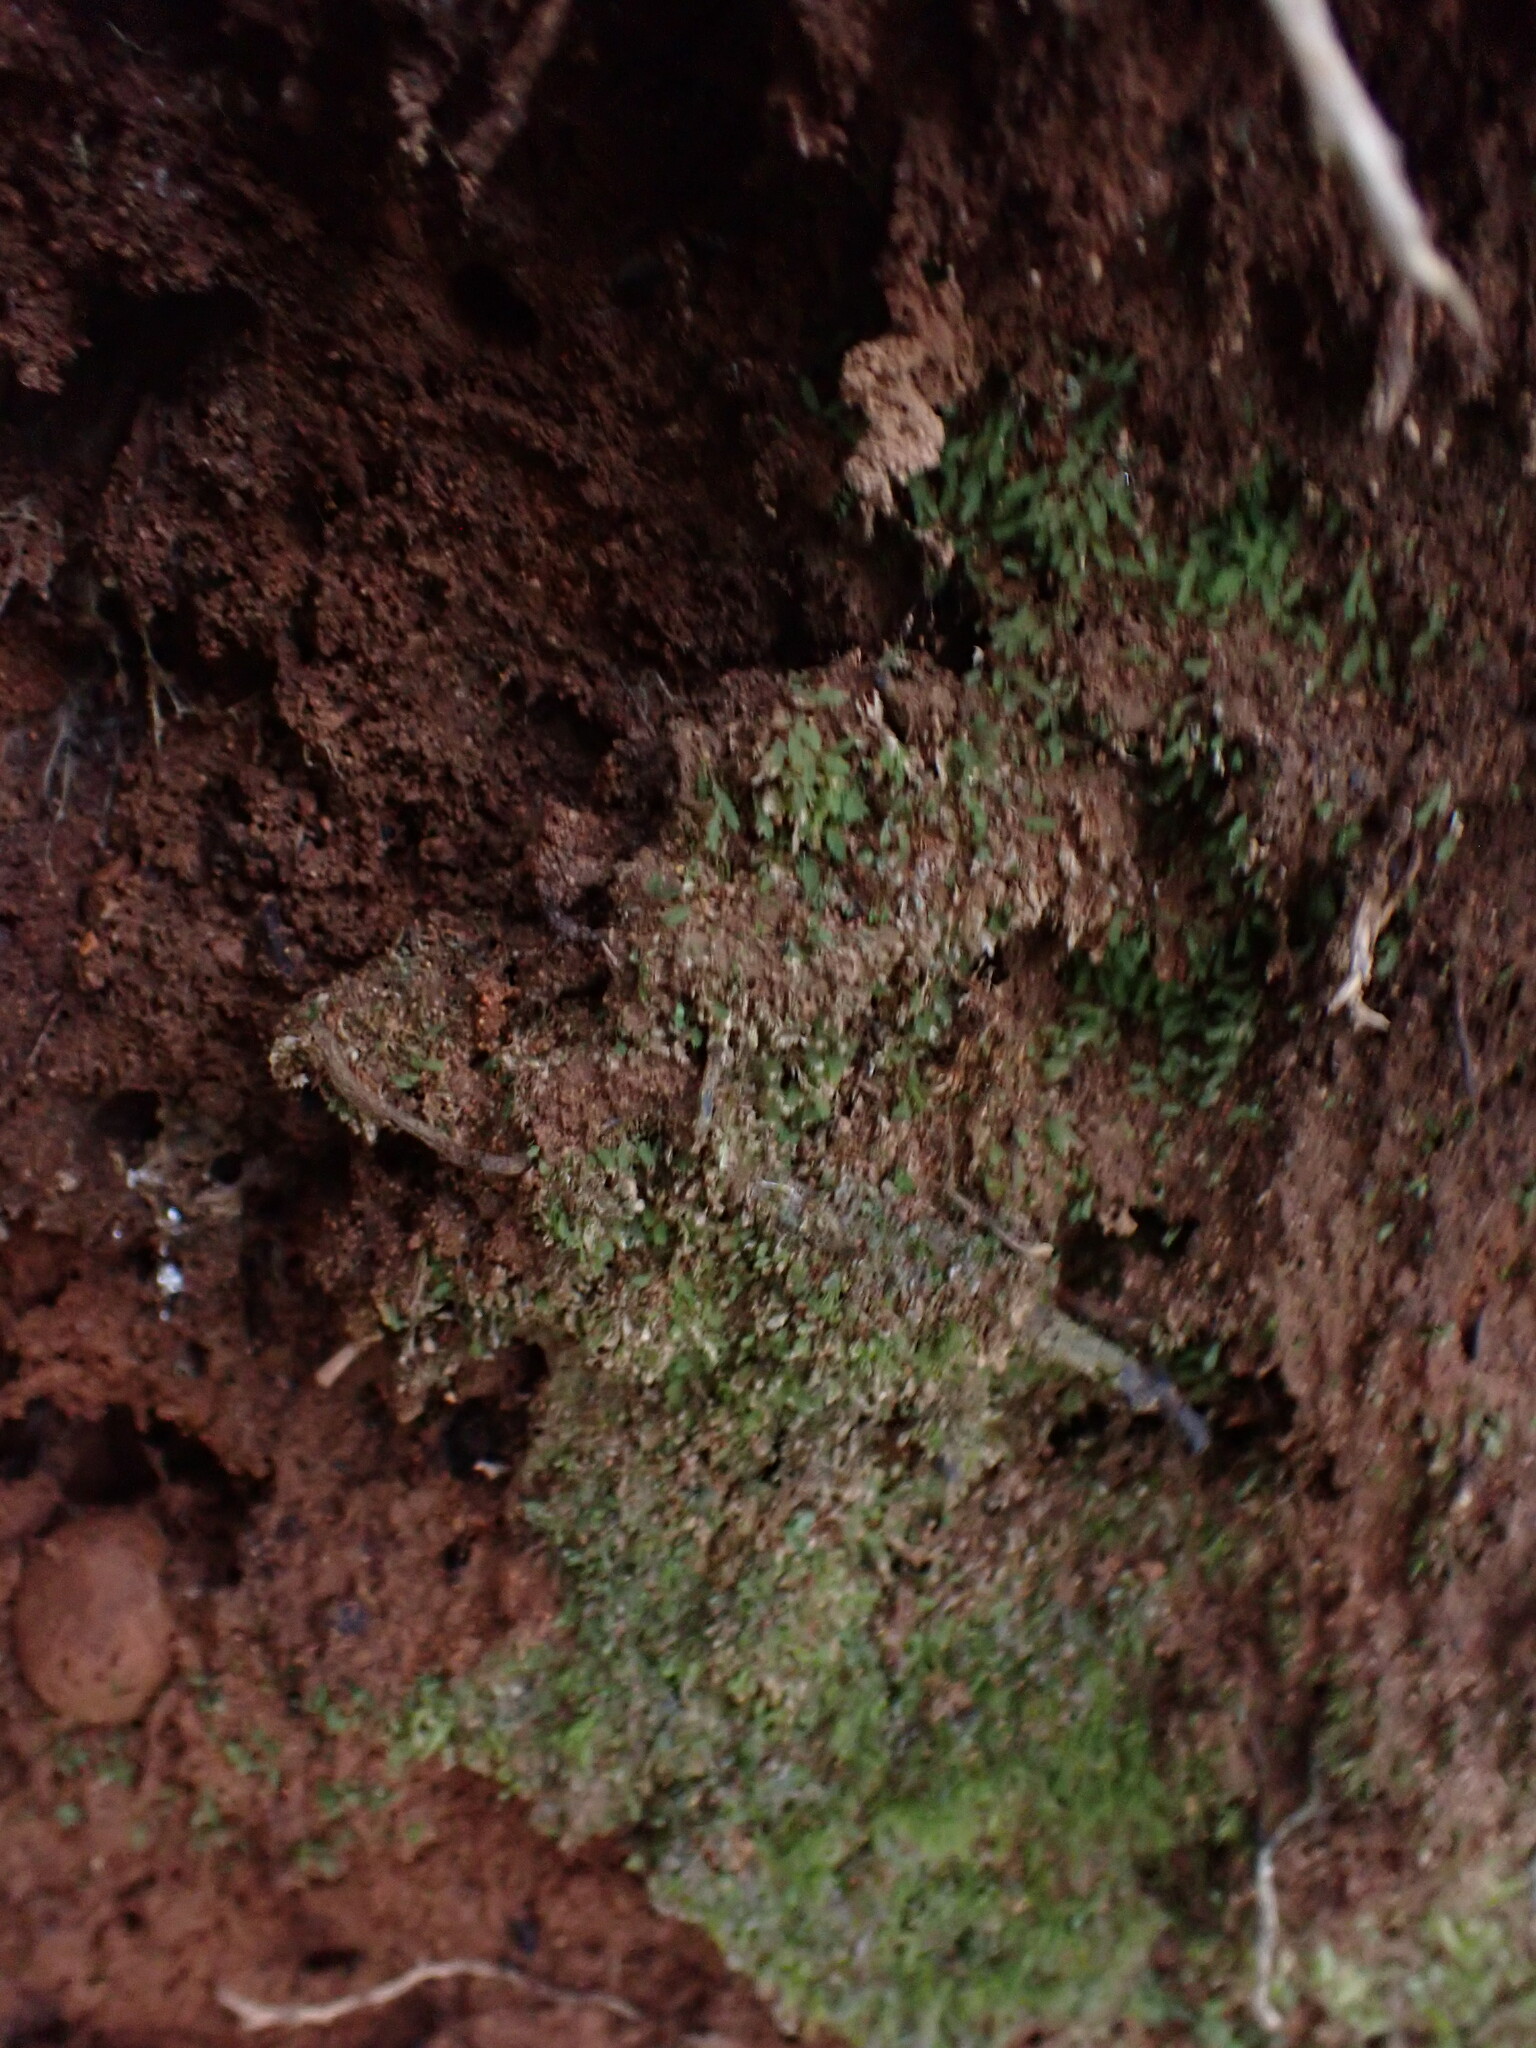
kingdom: Plantae
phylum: Bryophyta
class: Bryopsida
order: Dicranales
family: Schistostegaceae
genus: Schistostega
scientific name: Schistostega pennata
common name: Luminous moss
